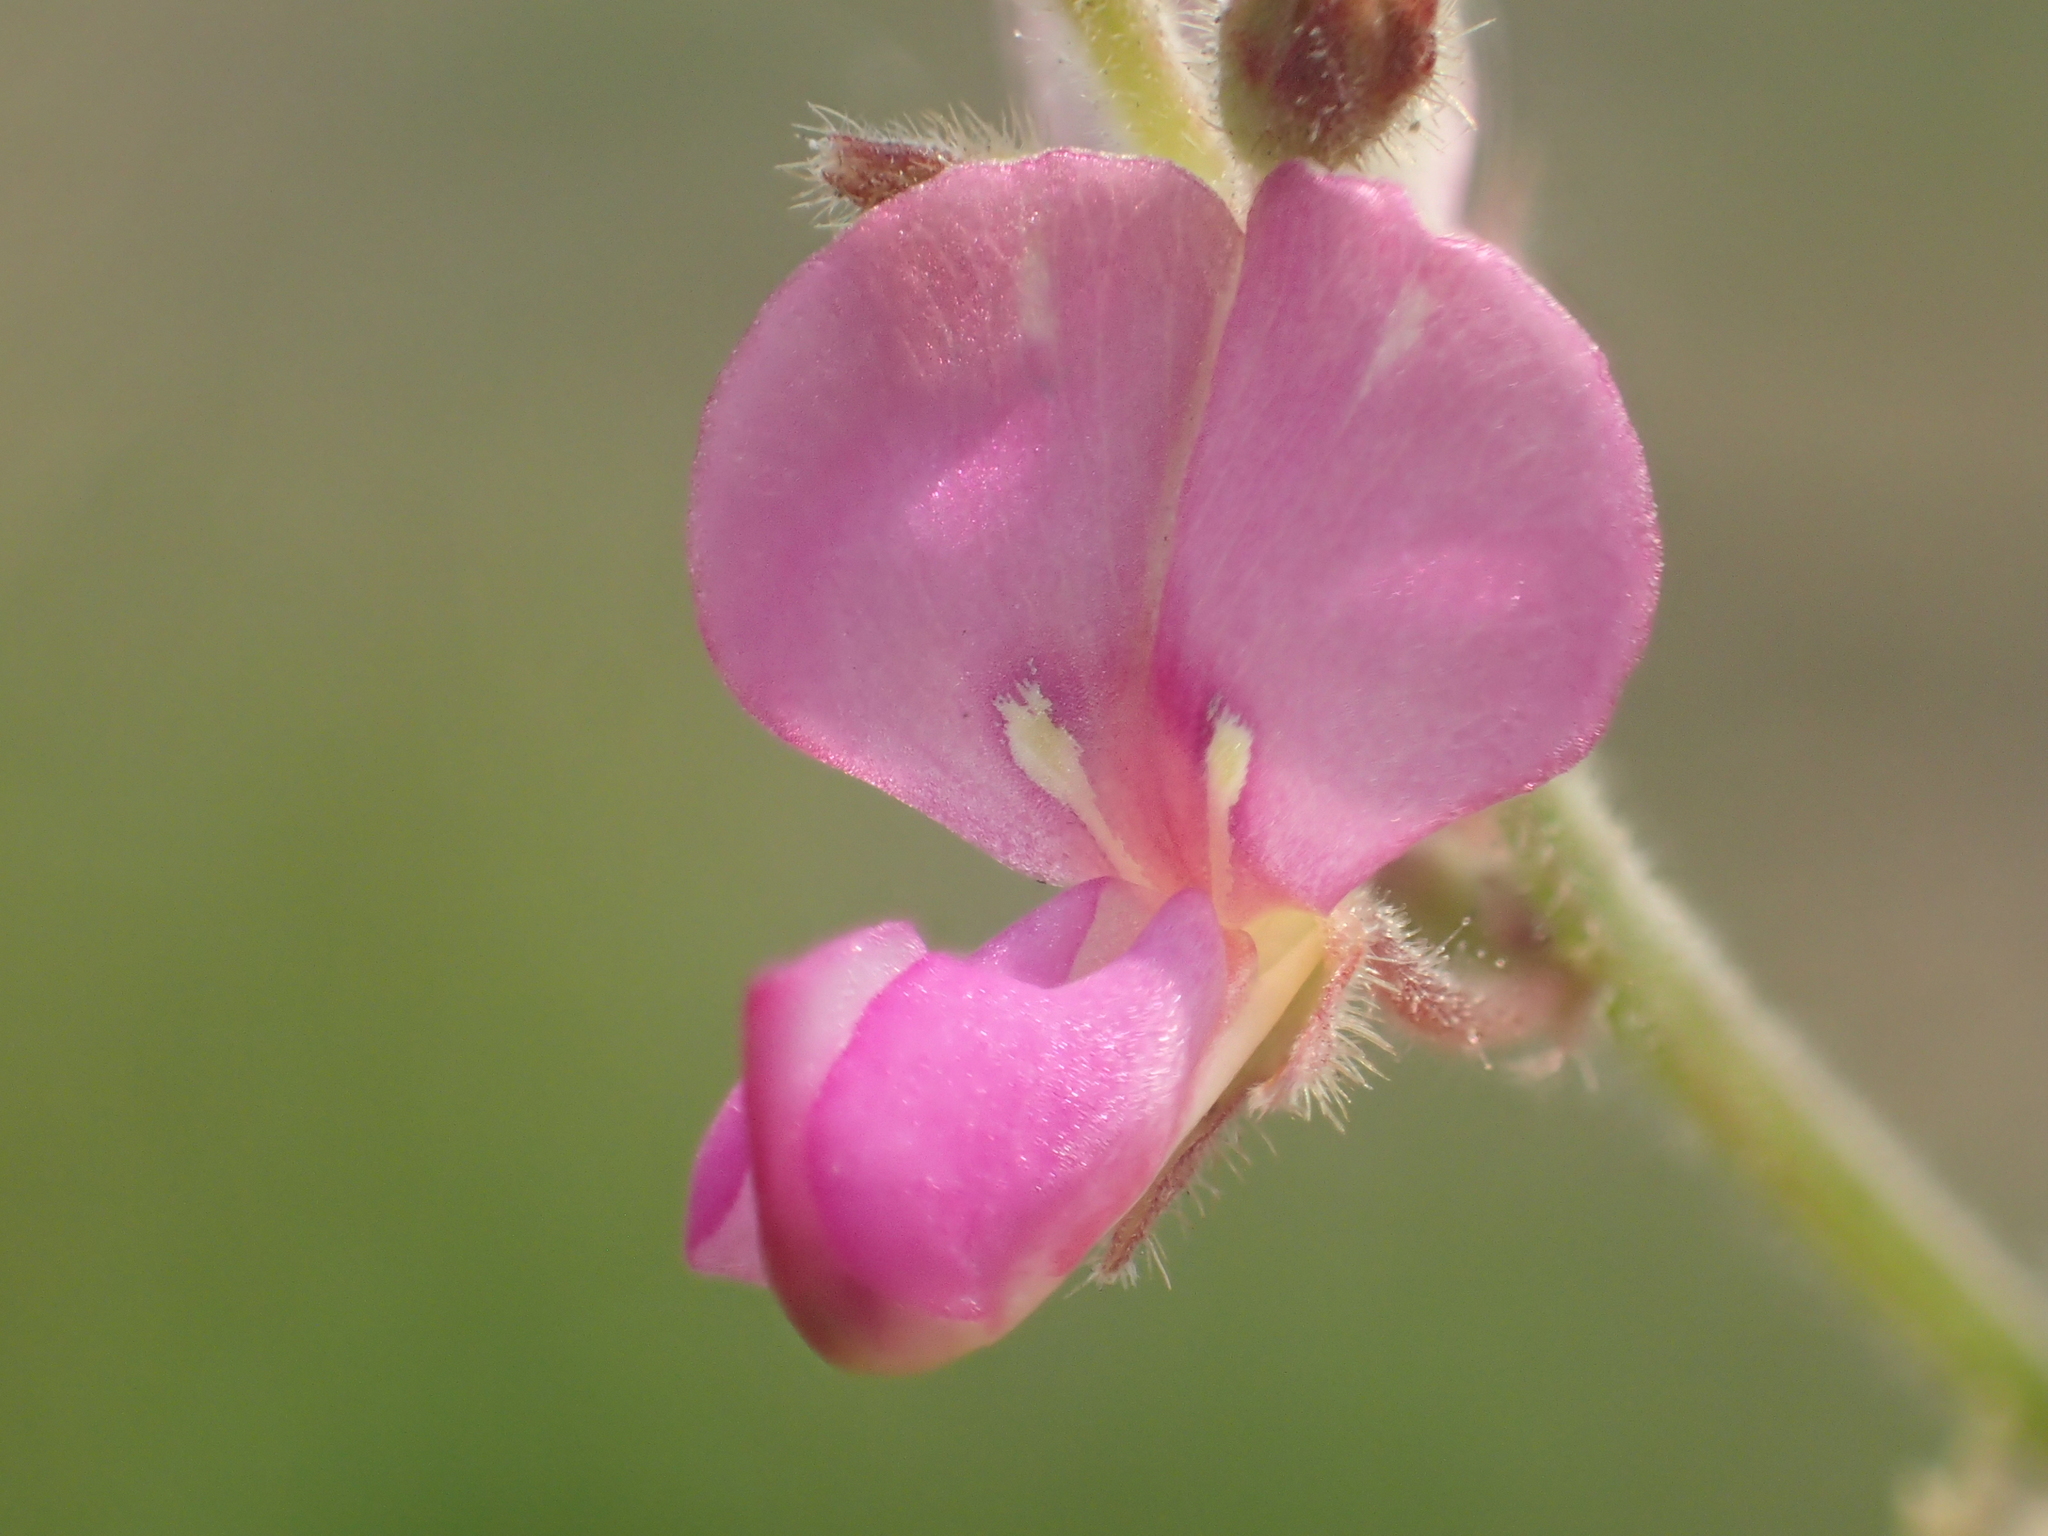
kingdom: Plantae
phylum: Tracheophyta
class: Magnoliopsida
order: Fabales
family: Fabaceae
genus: Desmodium
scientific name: Desmodium scorpiurus
